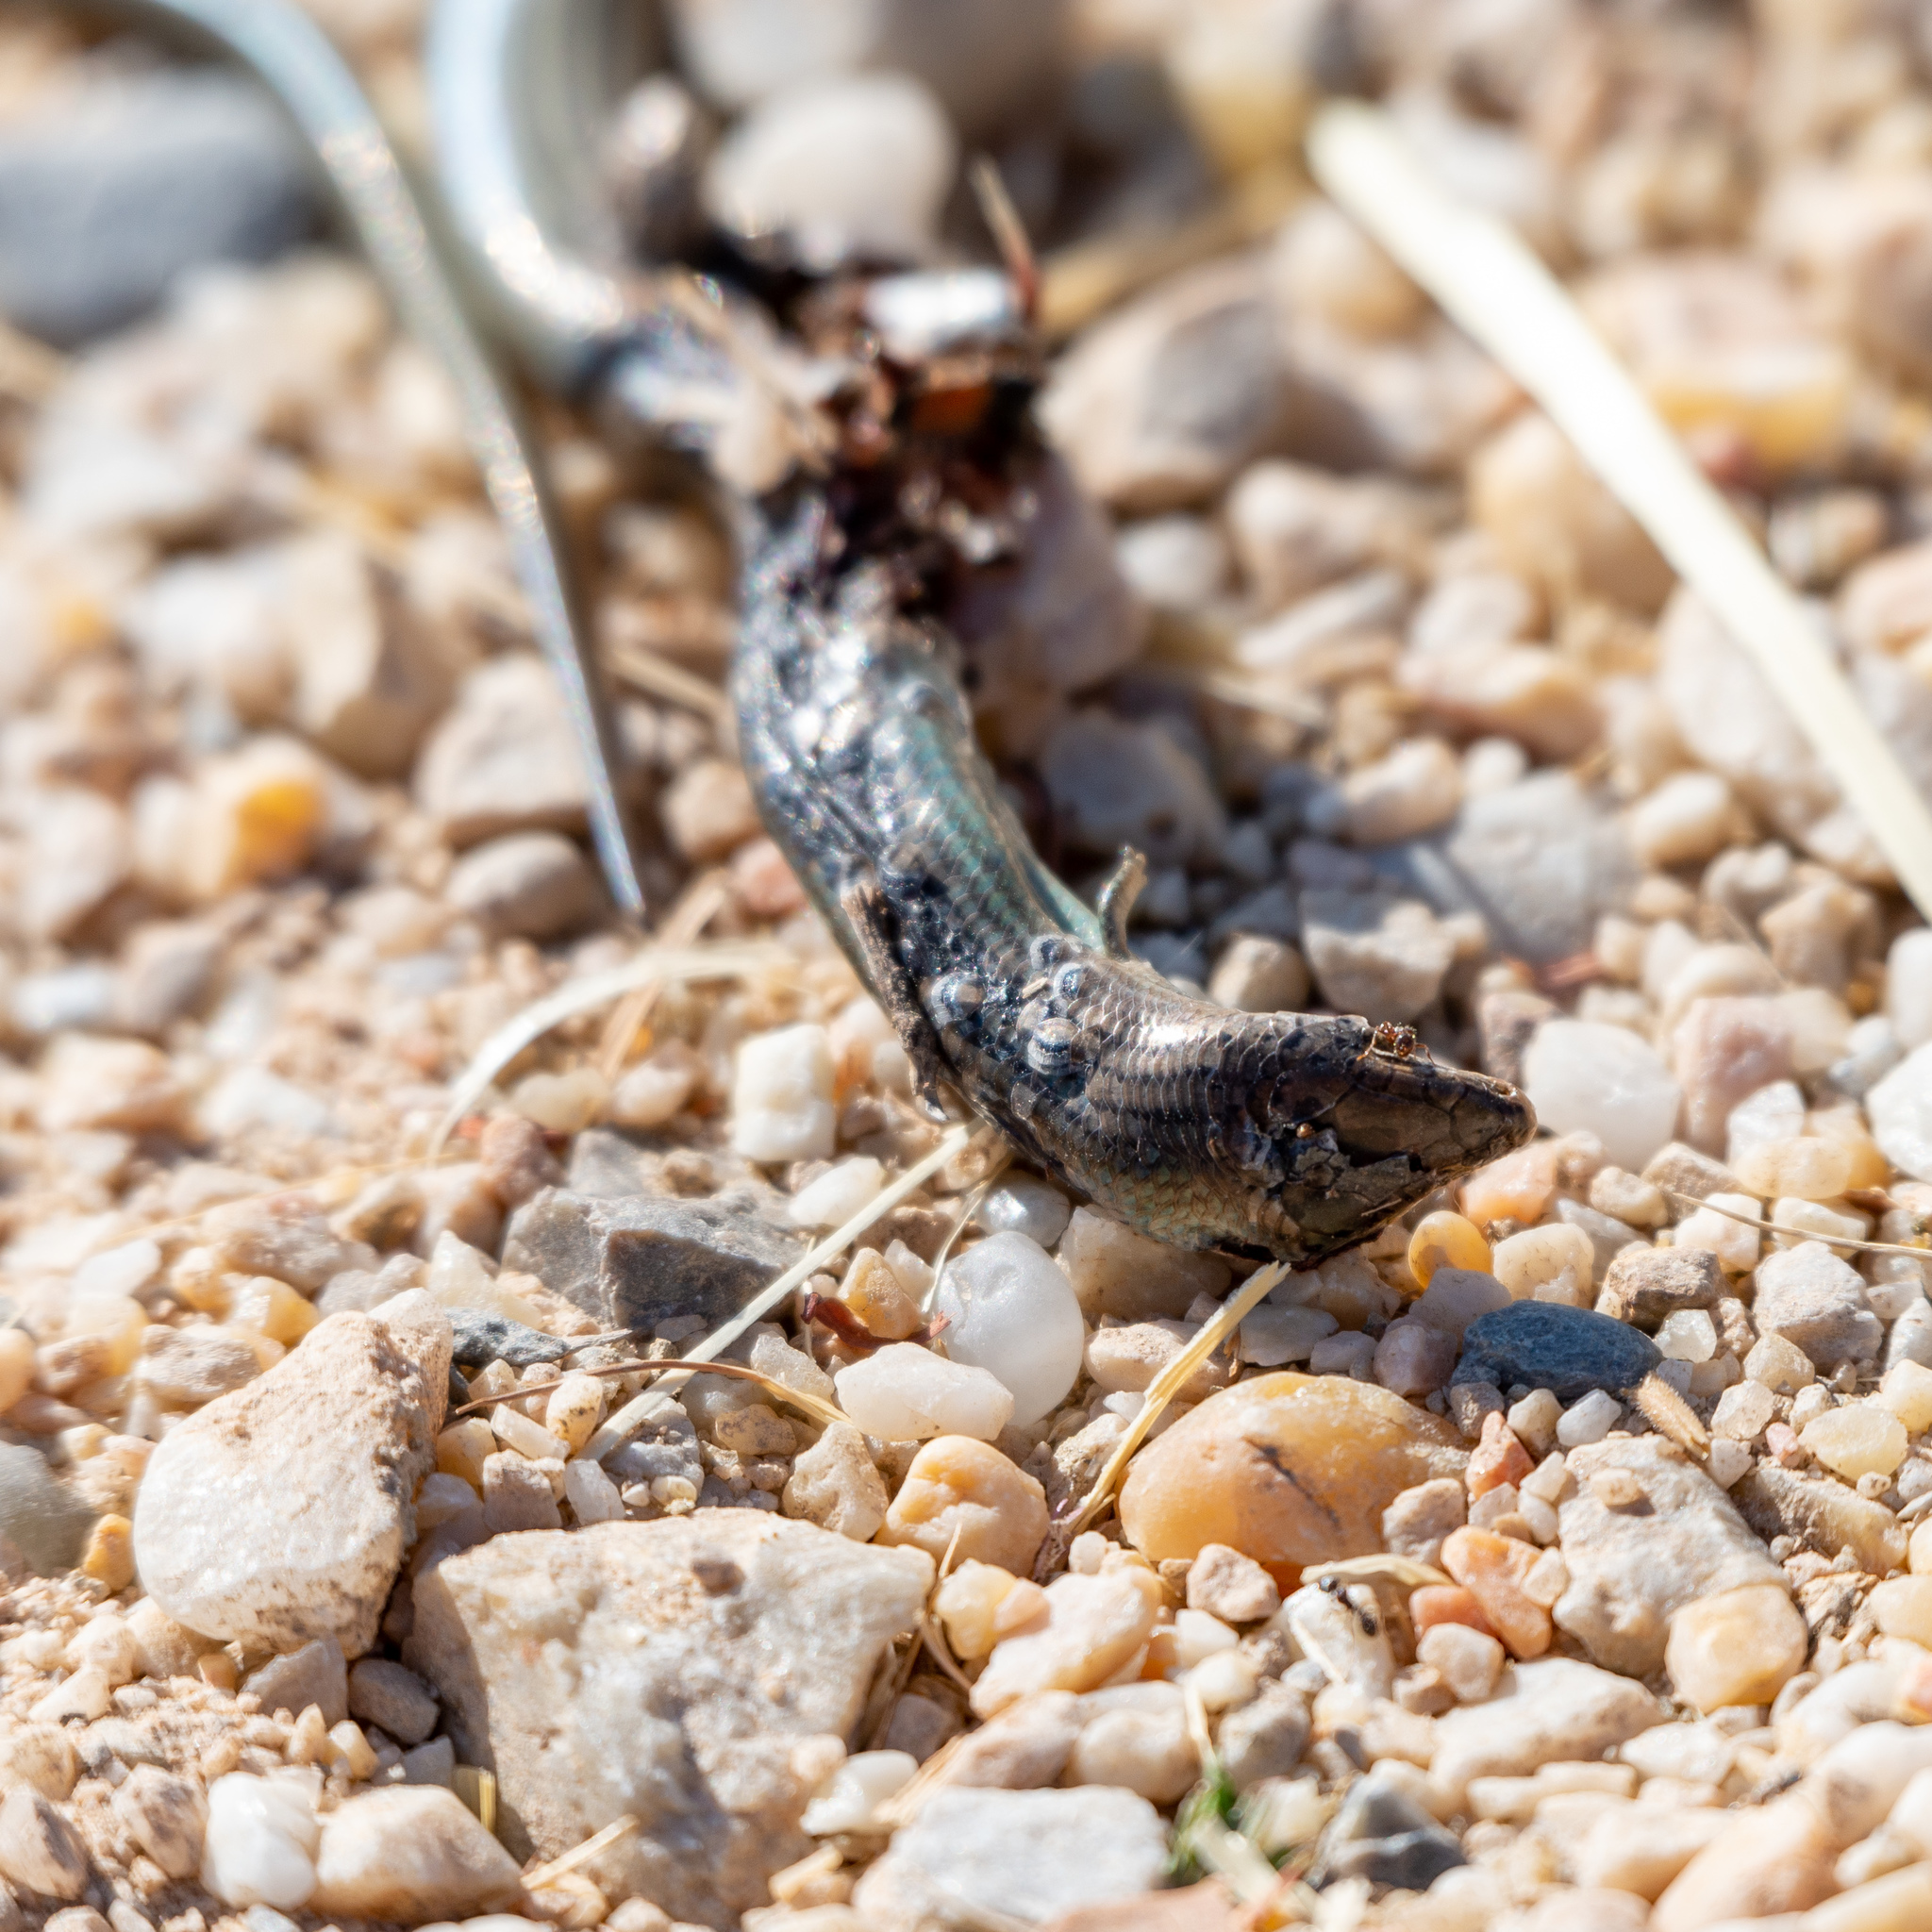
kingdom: Animalia
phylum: Chordata
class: Squamata
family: Scincidae
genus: Chalcides
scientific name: Chalcides striatus
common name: Western (or iberian) three-toed skink
